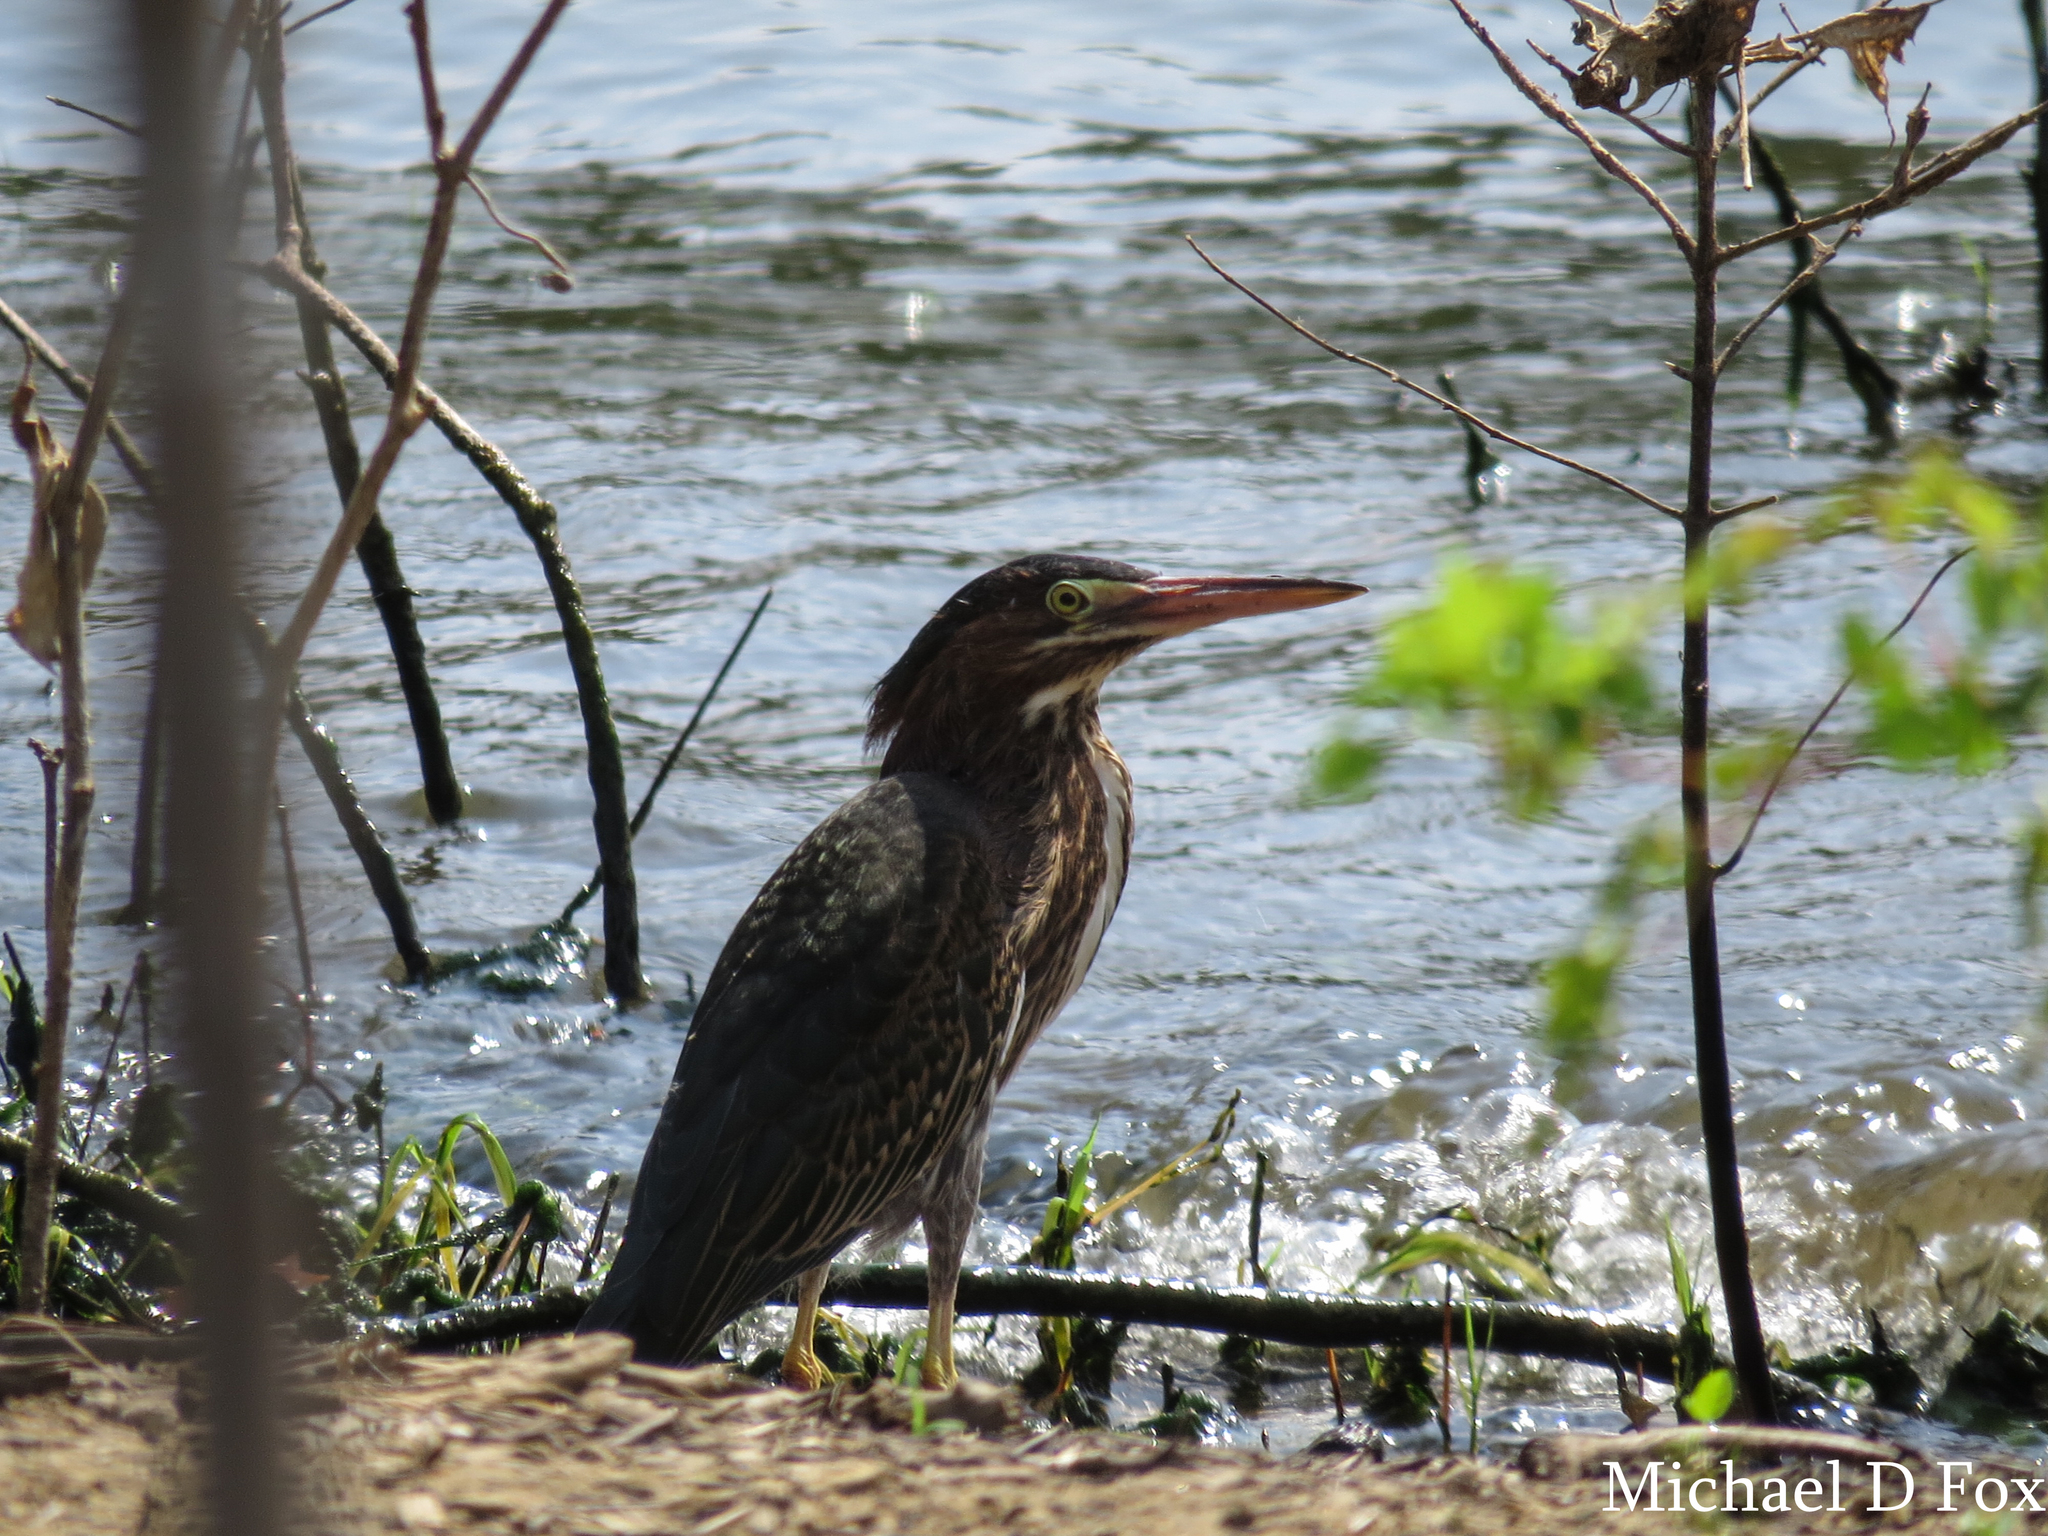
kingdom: Animalia
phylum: Chordata
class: Aves
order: Pelecaniformes
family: Ardeidae
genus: Butorides
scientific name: Butorides virescens
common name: Green heron
